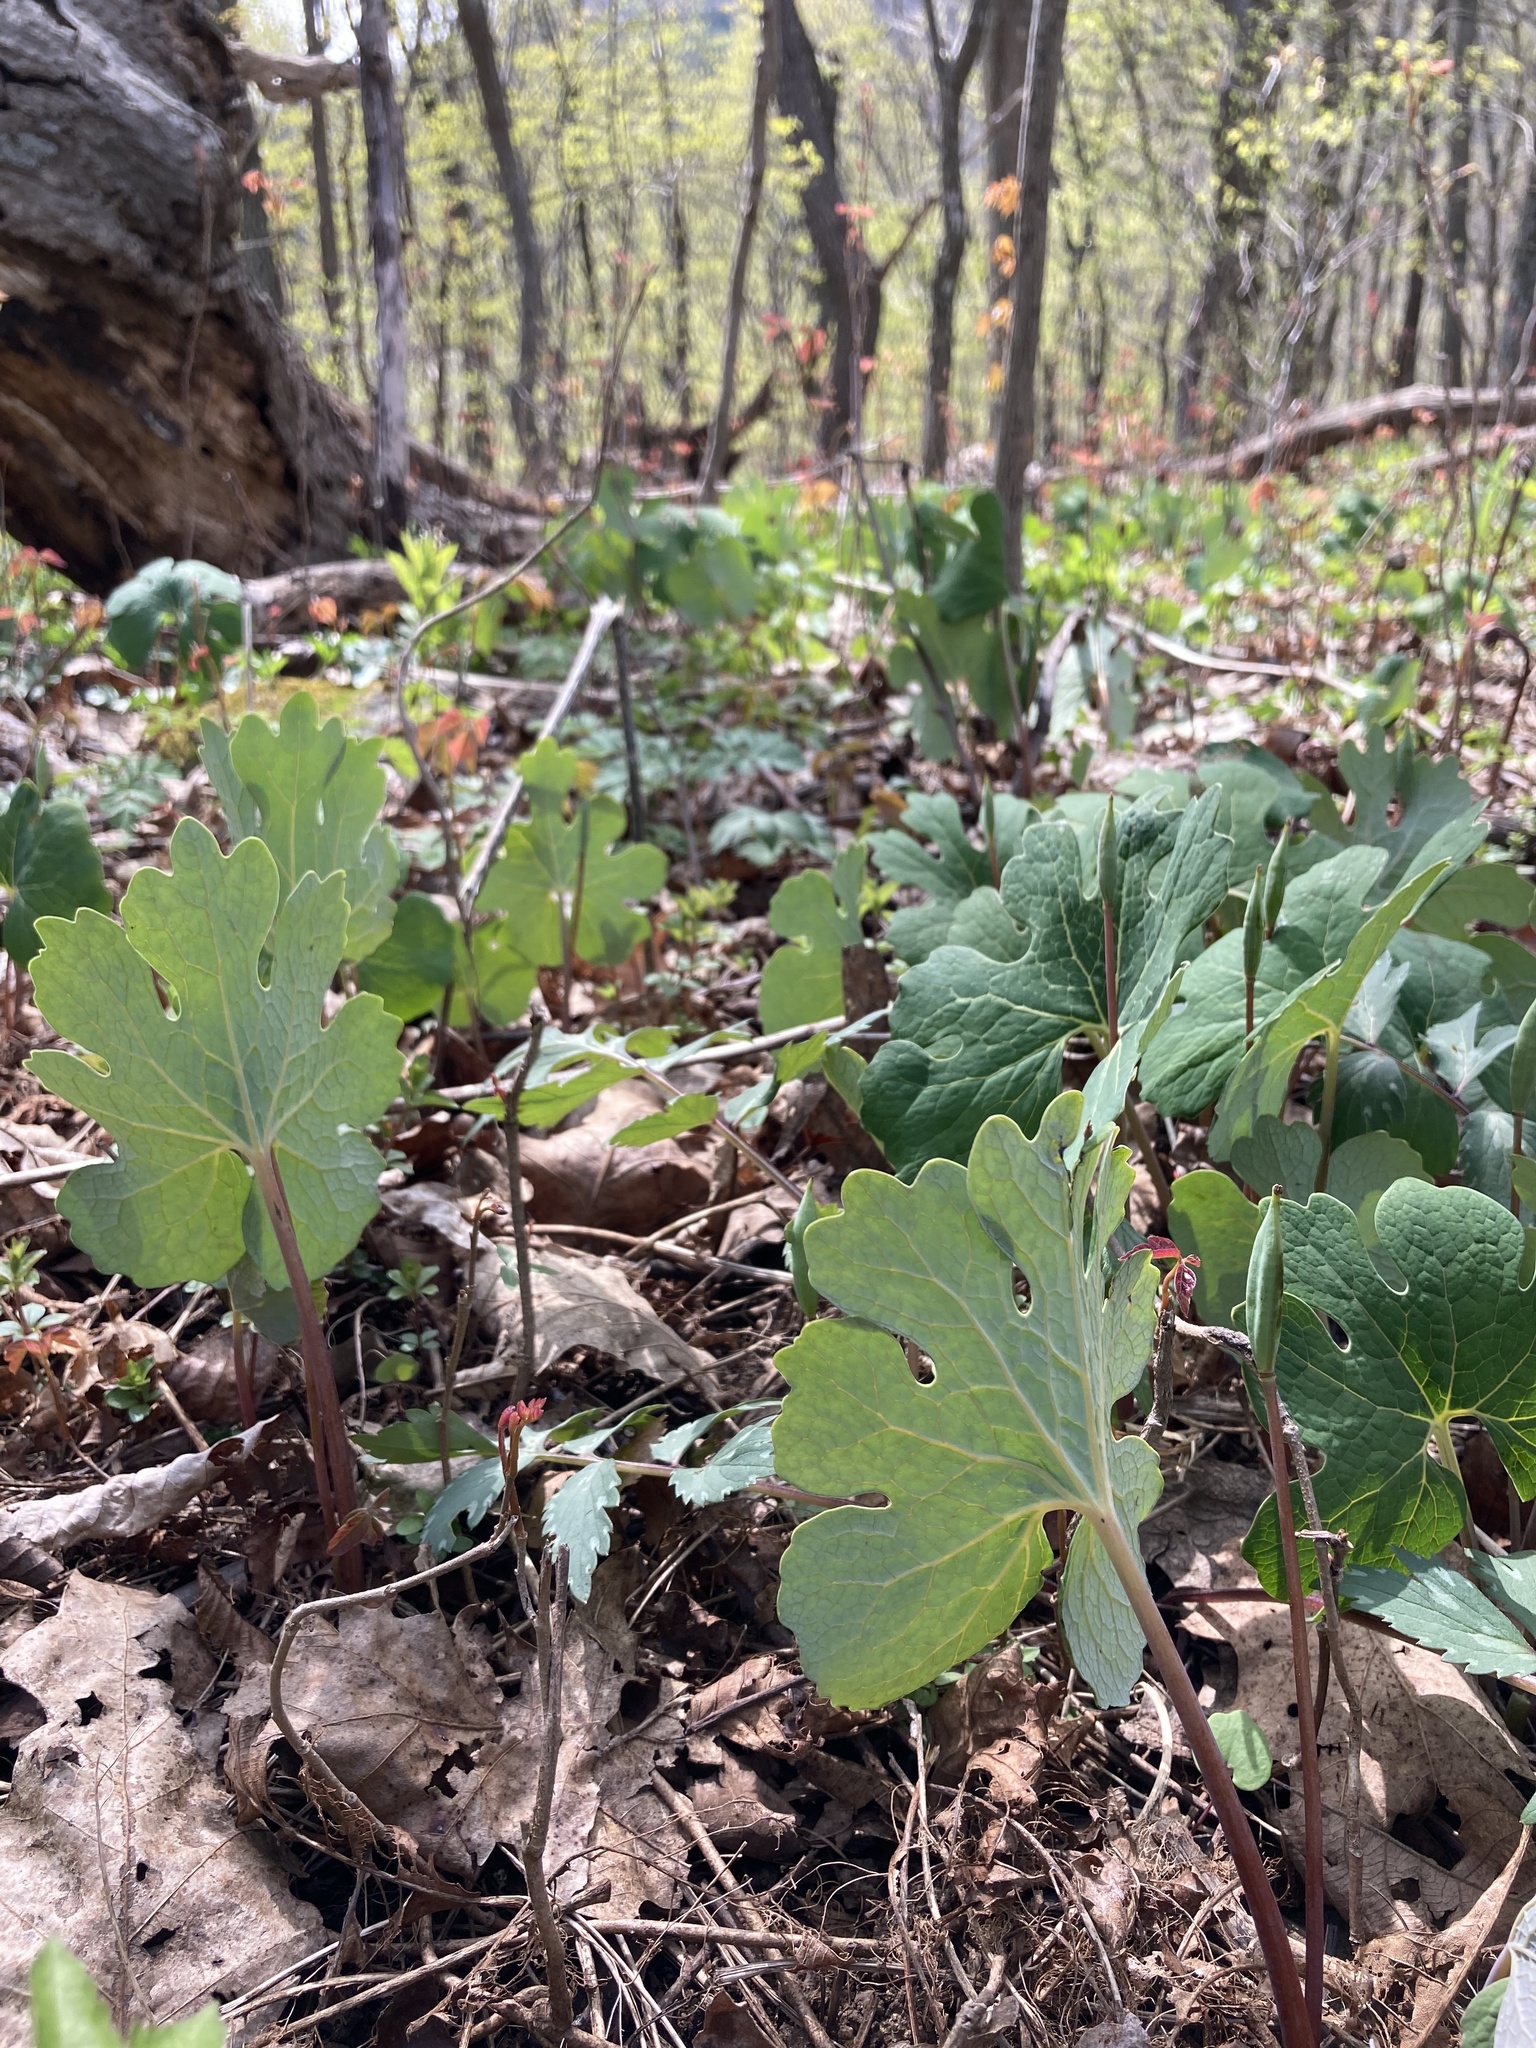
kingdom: Plantae
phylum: Tracheophyta
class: Magnoliopsida
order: Ranunculales
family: Papaveraceae
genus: Sanguinaria
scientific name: Sanguinaria canadensis
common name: Bloodroot
